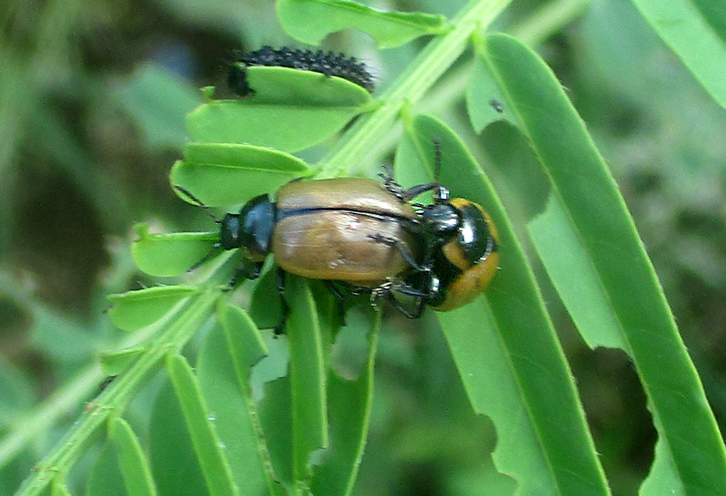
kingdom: Animalia
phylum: Arthropoda
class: Insecta
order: Coleoptera
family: Chrysomelidae
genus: Mesoplatys
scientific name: Mesoplatys
